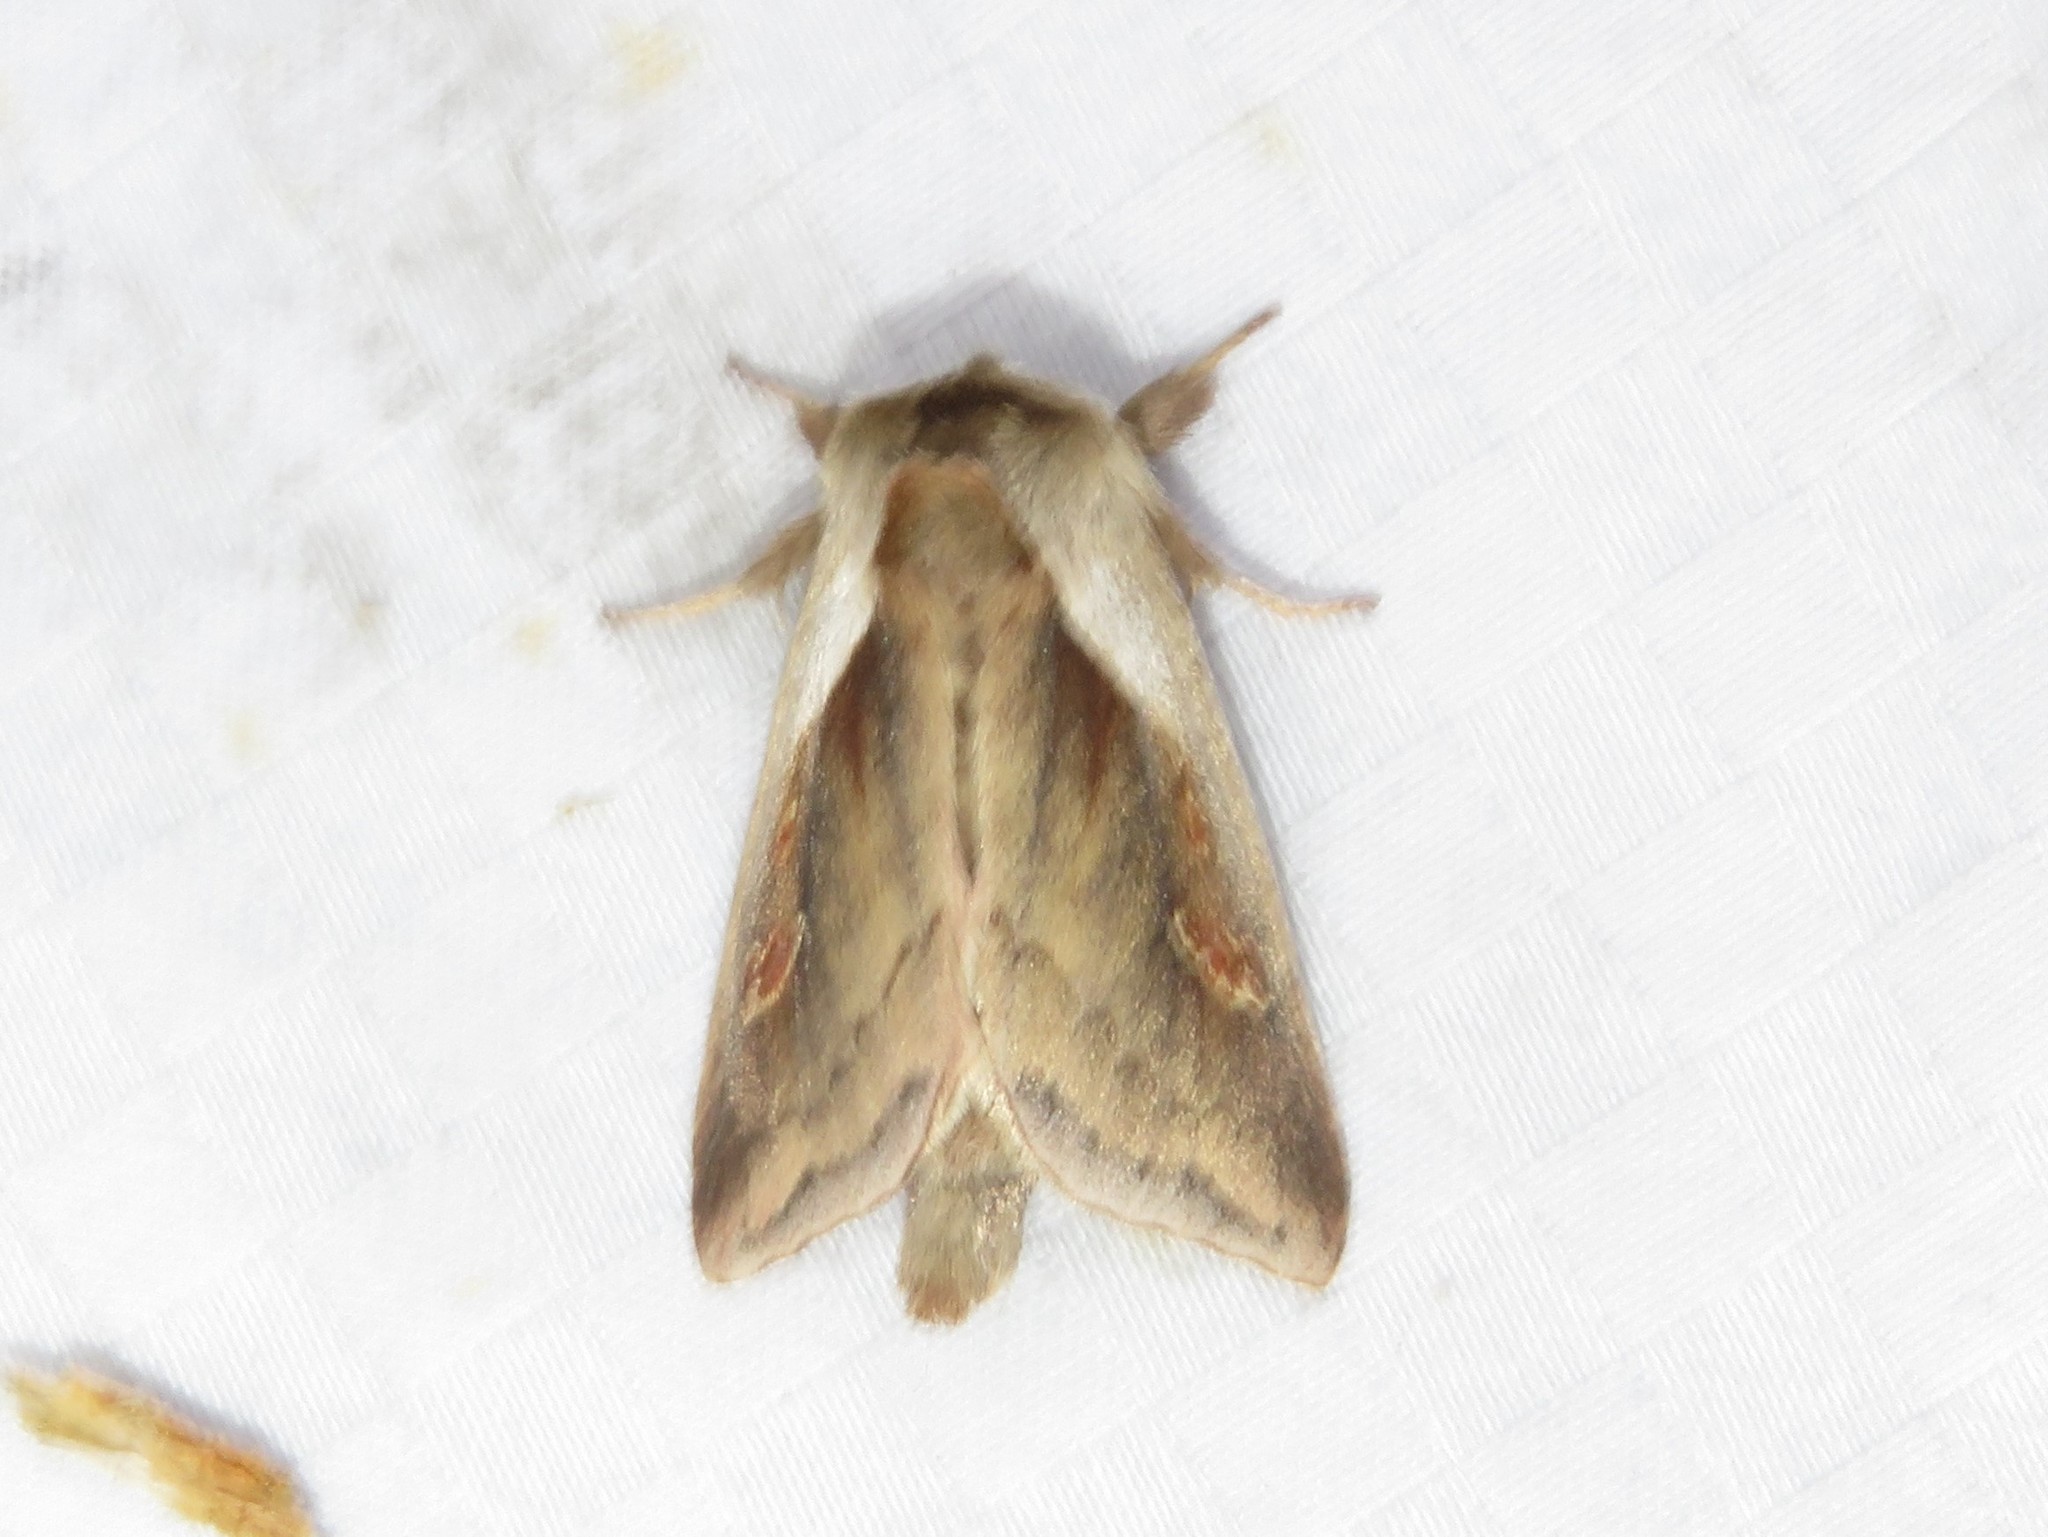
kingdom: Animalia
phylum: Arthropoda
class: Insecta
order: Lepidoptera
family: Noctuidae
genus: Bellura
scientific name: Bellura obliqua
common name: Cattail borer moth
